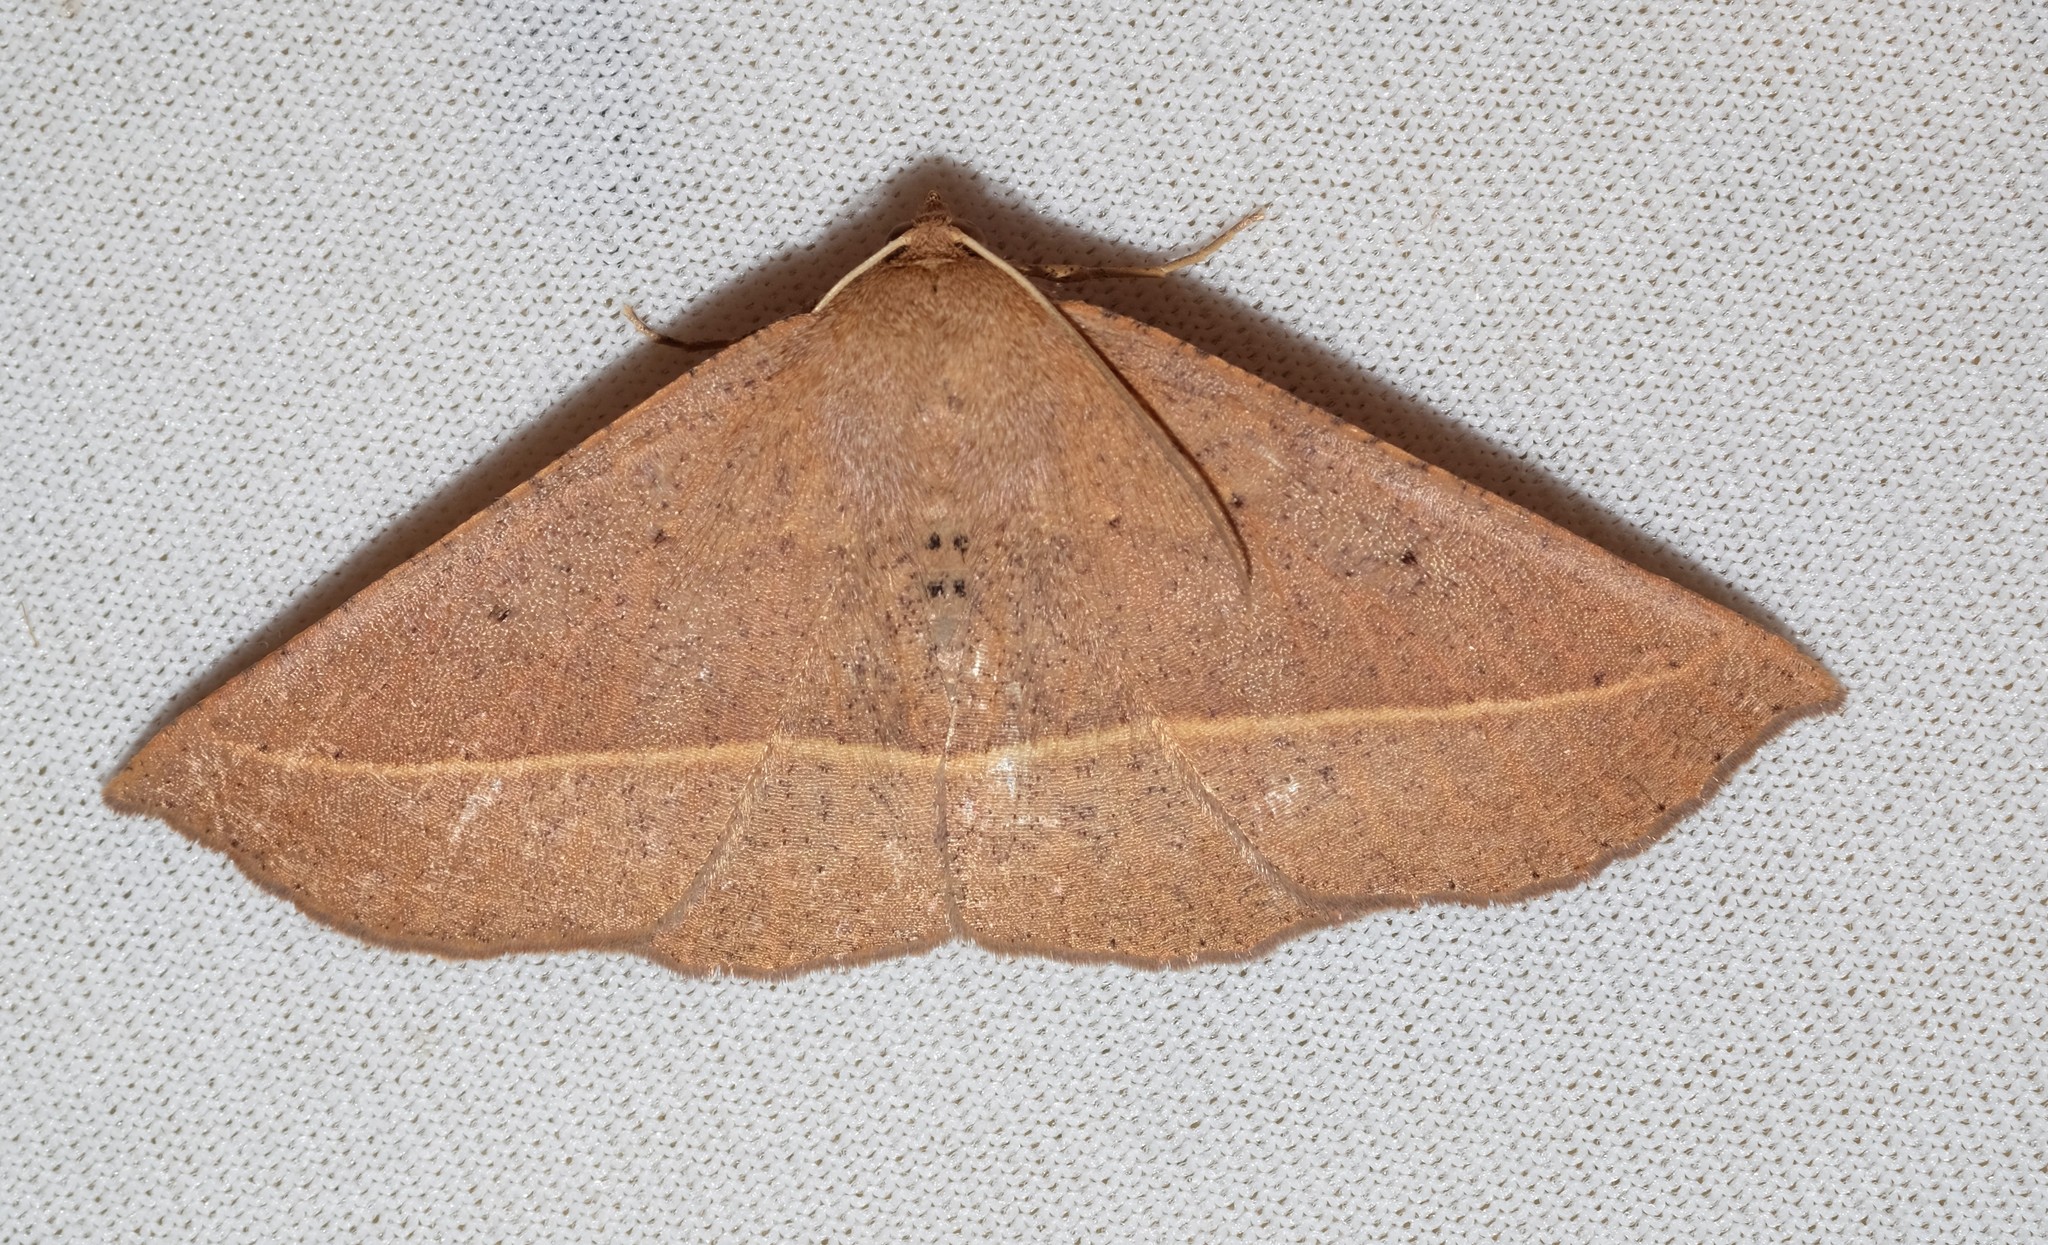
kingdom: Animalia
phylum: Arthropoda
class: Insecta
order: Lepidoptera
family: Geometridae
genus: Idiodes
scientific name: Idiodes apicata
